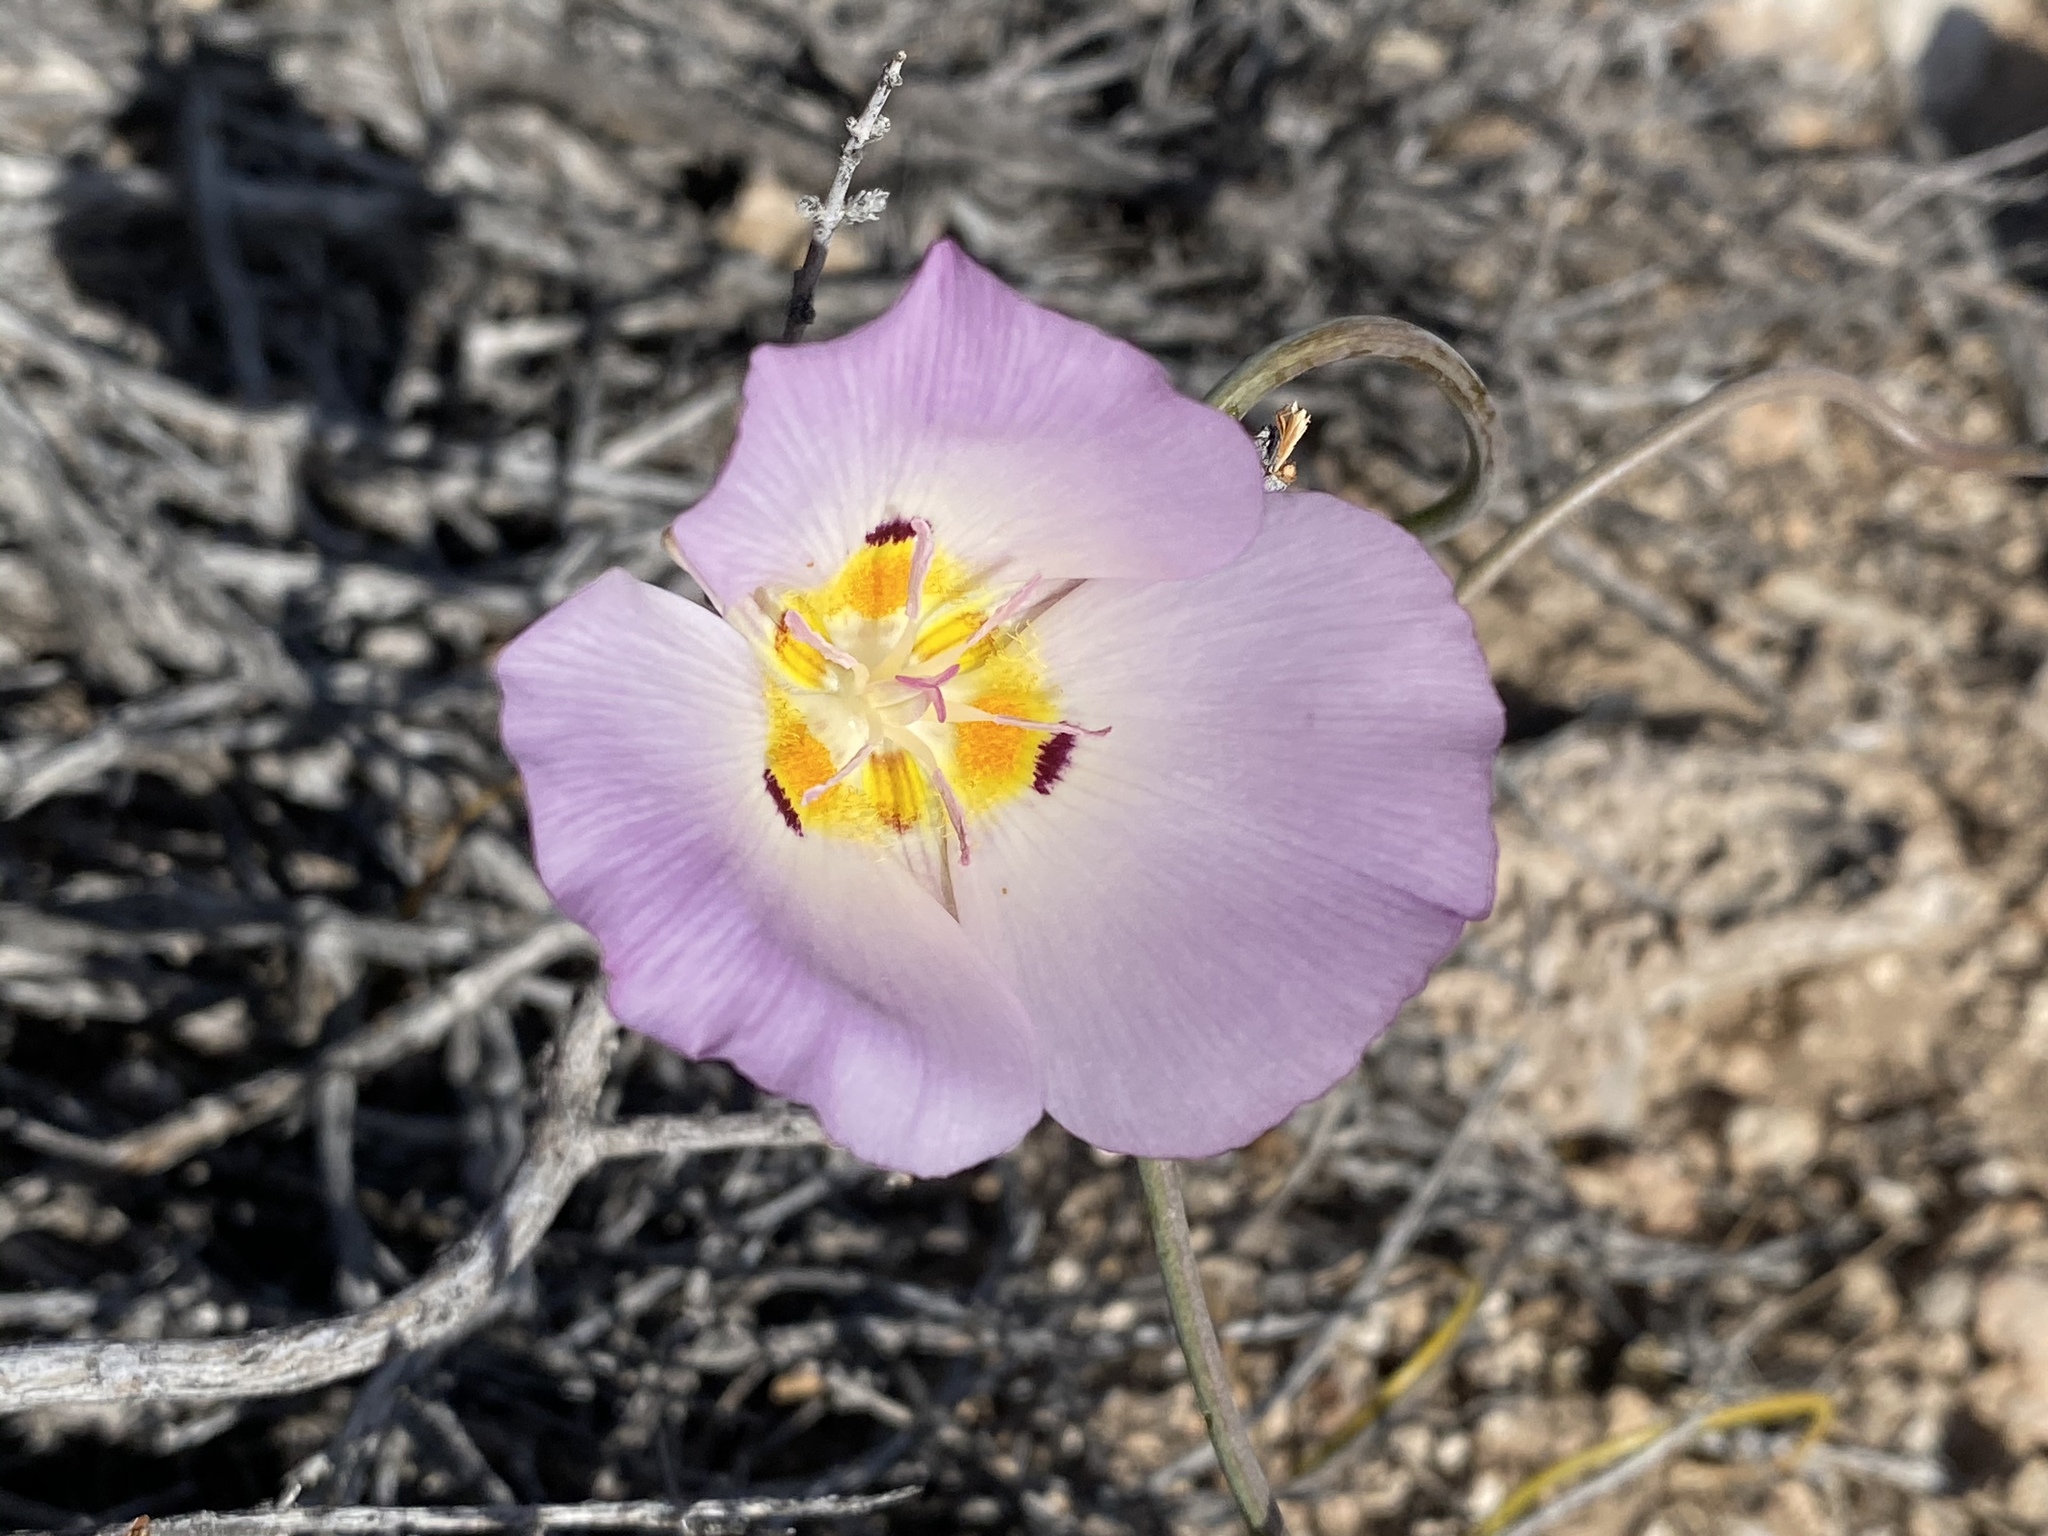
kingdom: Plantae
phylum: Tracheophyta
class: Liliopsida
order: Liliales
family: Liliaceae
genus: Calochortus
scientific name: Calochortus flexuosus
